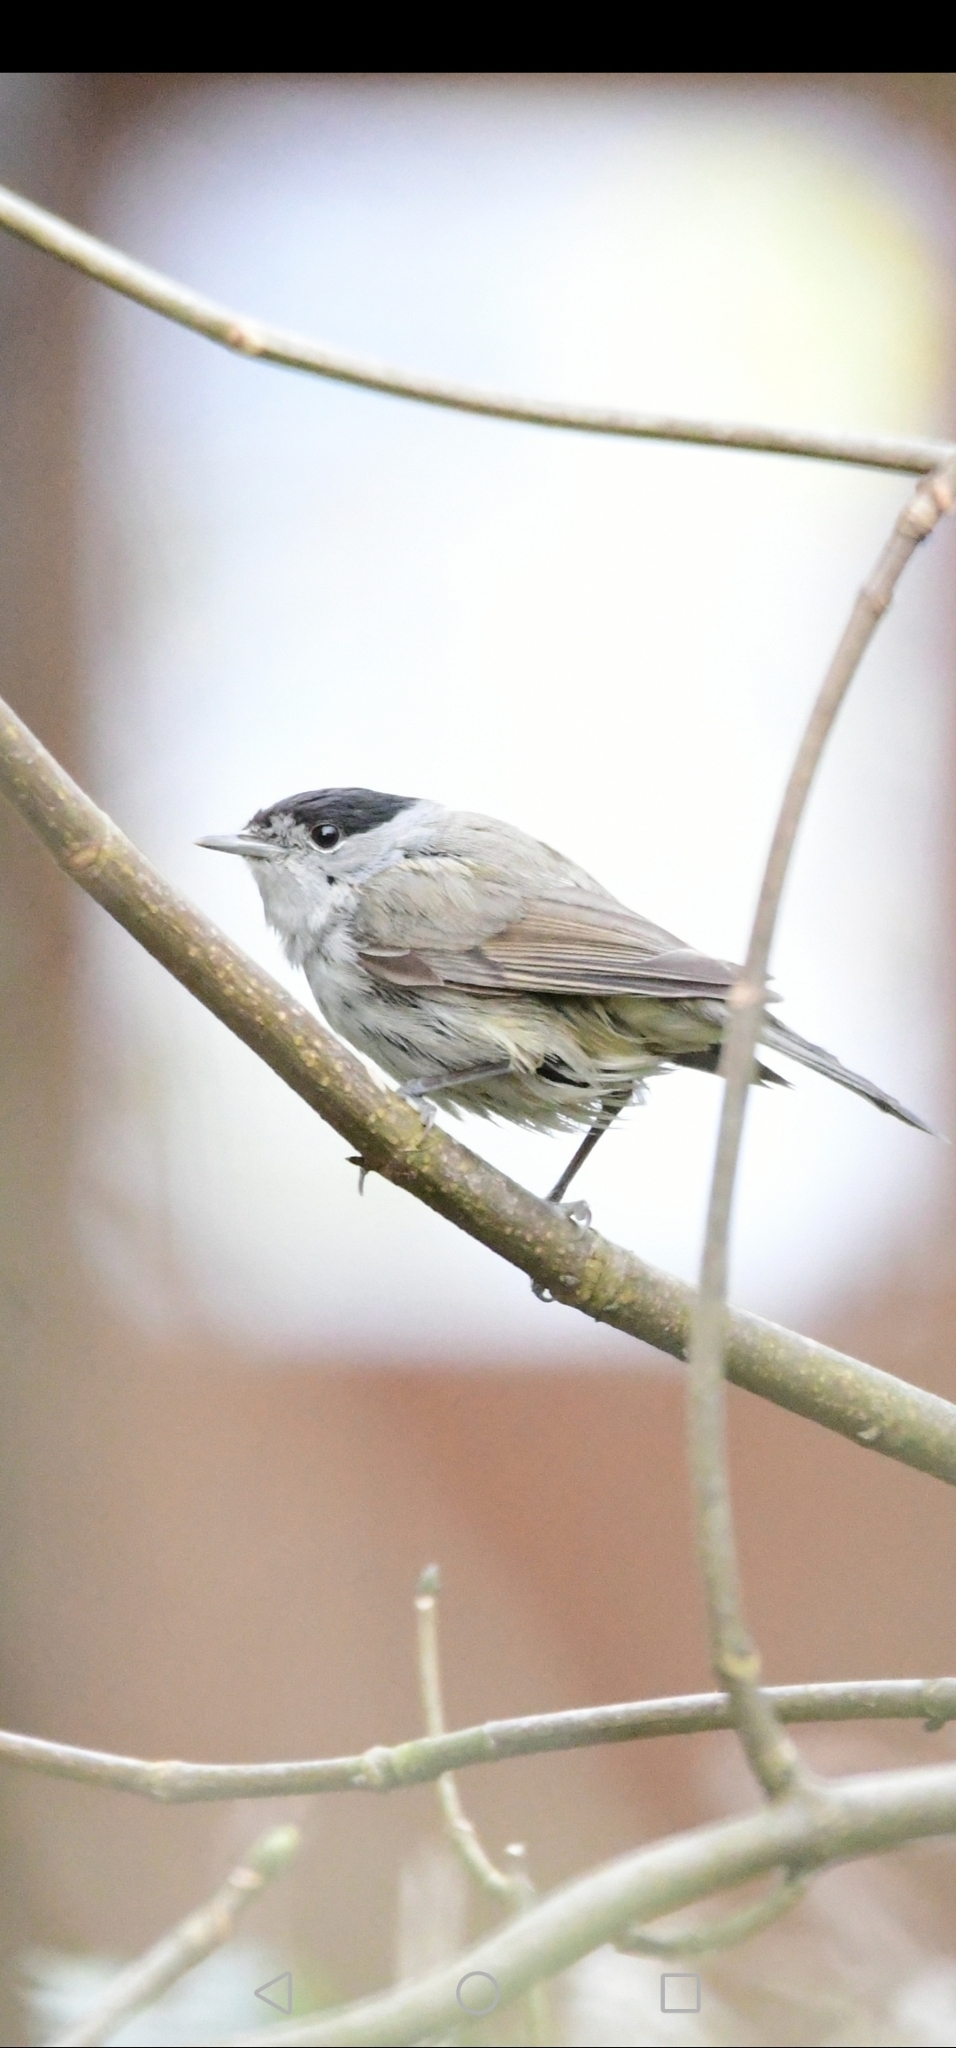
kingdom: Animalia
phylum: Chordata
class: Aves
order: Passeriformes
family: Sylviidae
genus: Sylvia
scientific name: Sylvia atricapilla
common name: Eurasian blackcap
